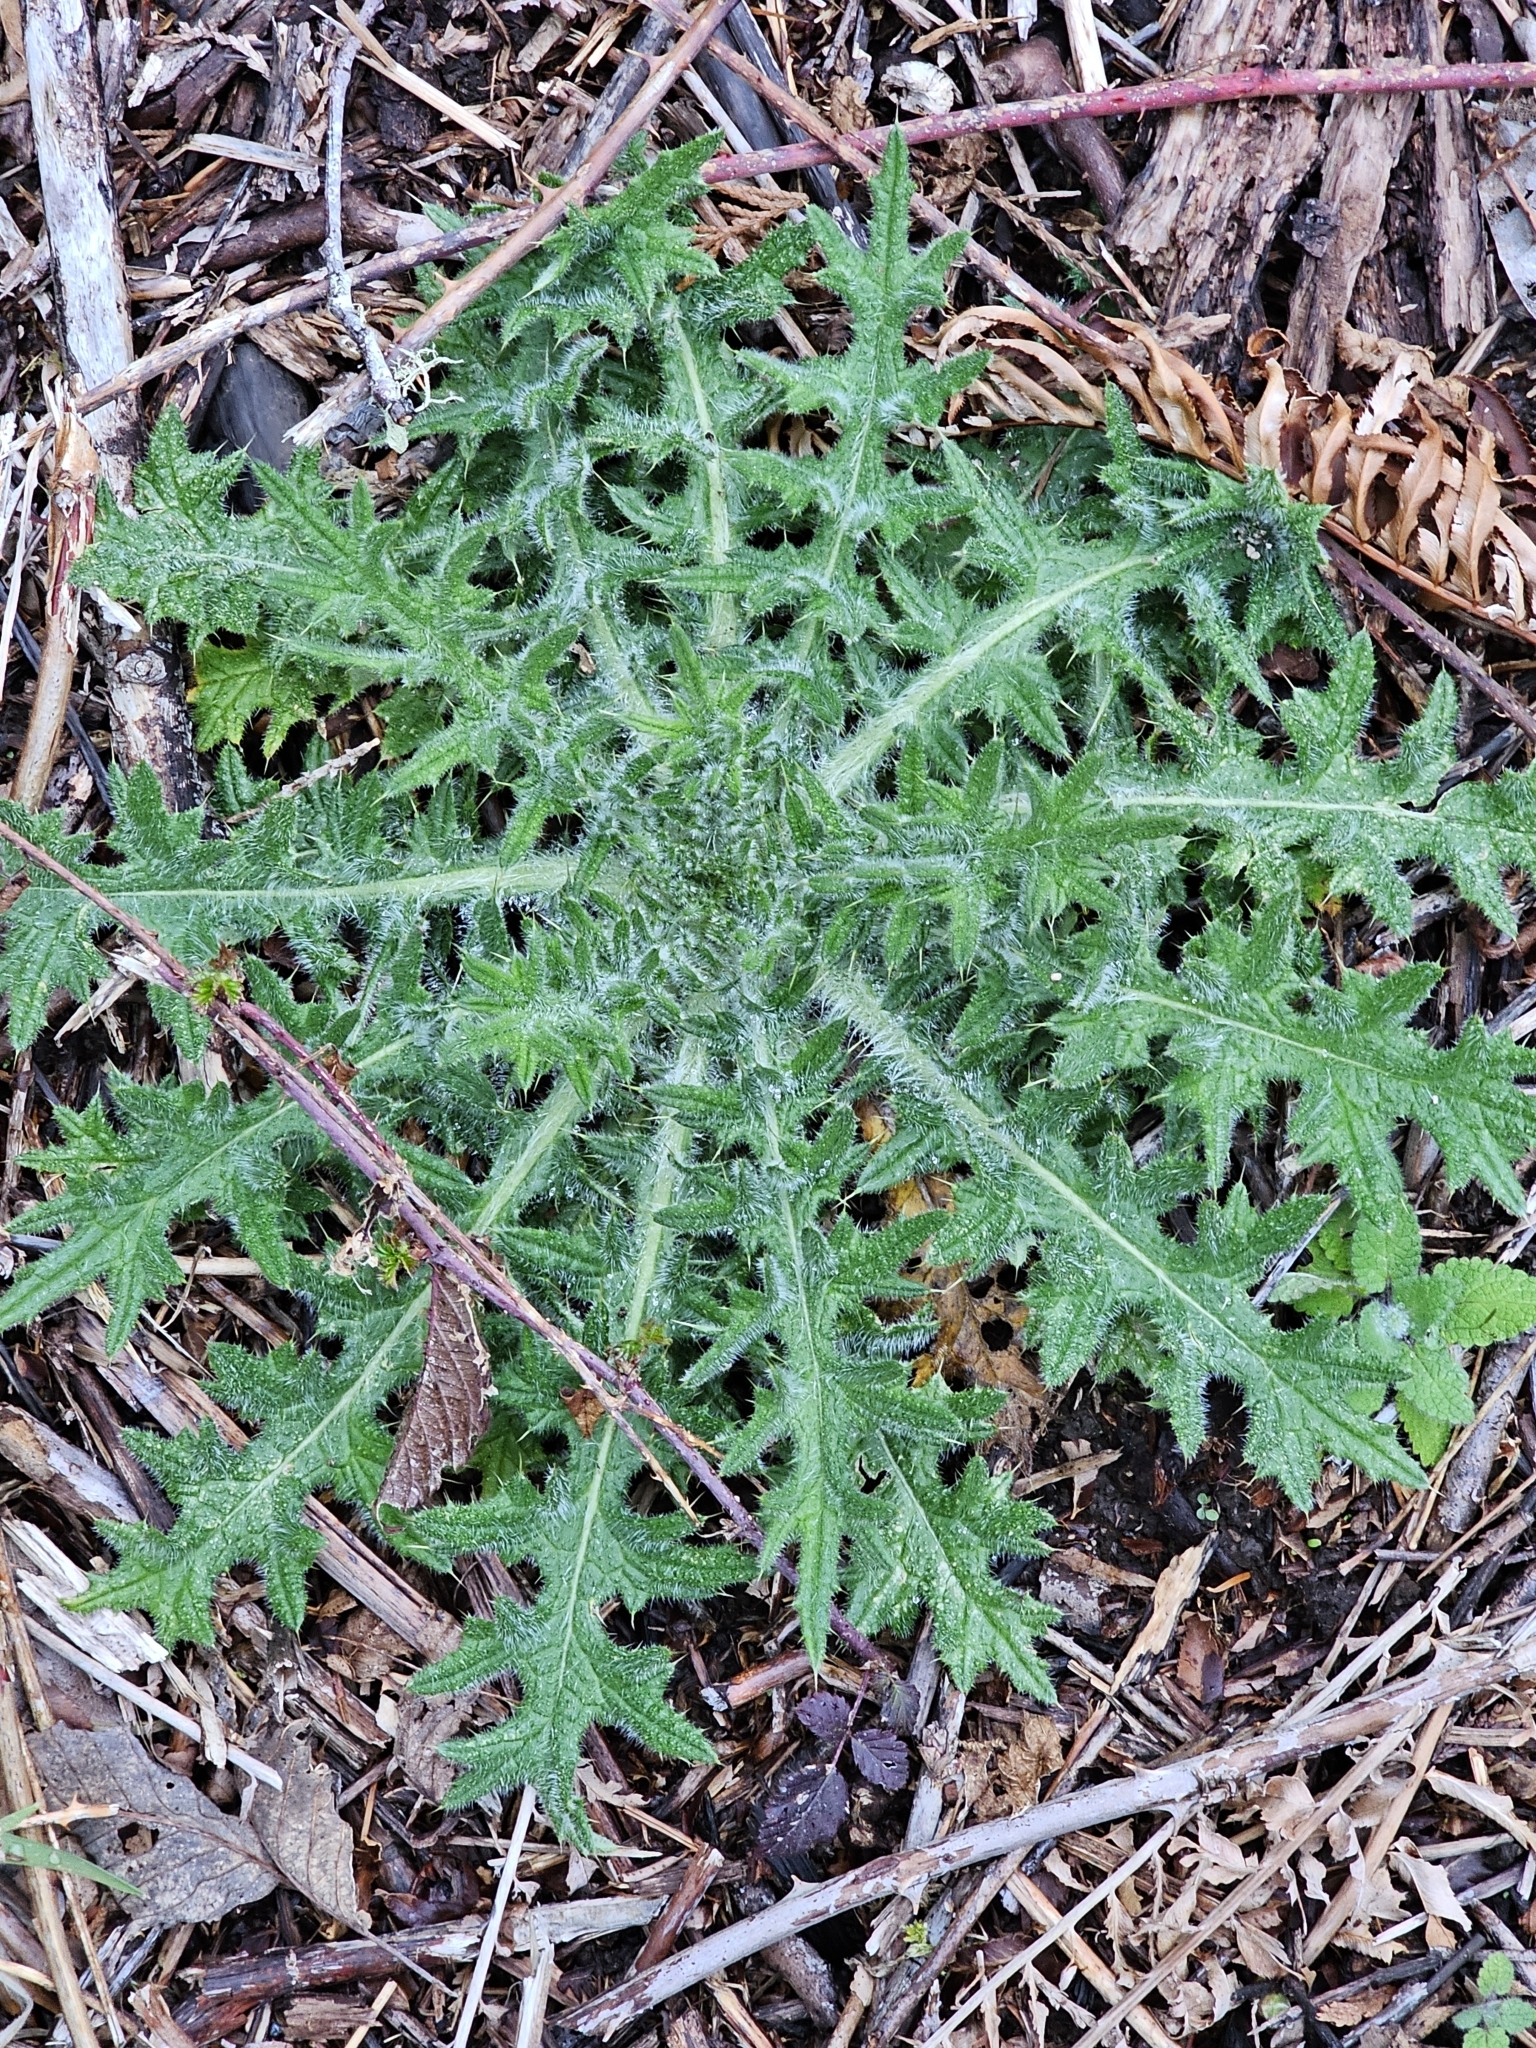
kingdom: Plantae
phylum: Tracheophyta
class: Magnoliopsida
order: Asterales
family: Asteraceae
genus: Cirsium
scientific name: Cirsium vulgare
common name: Bull thistle
